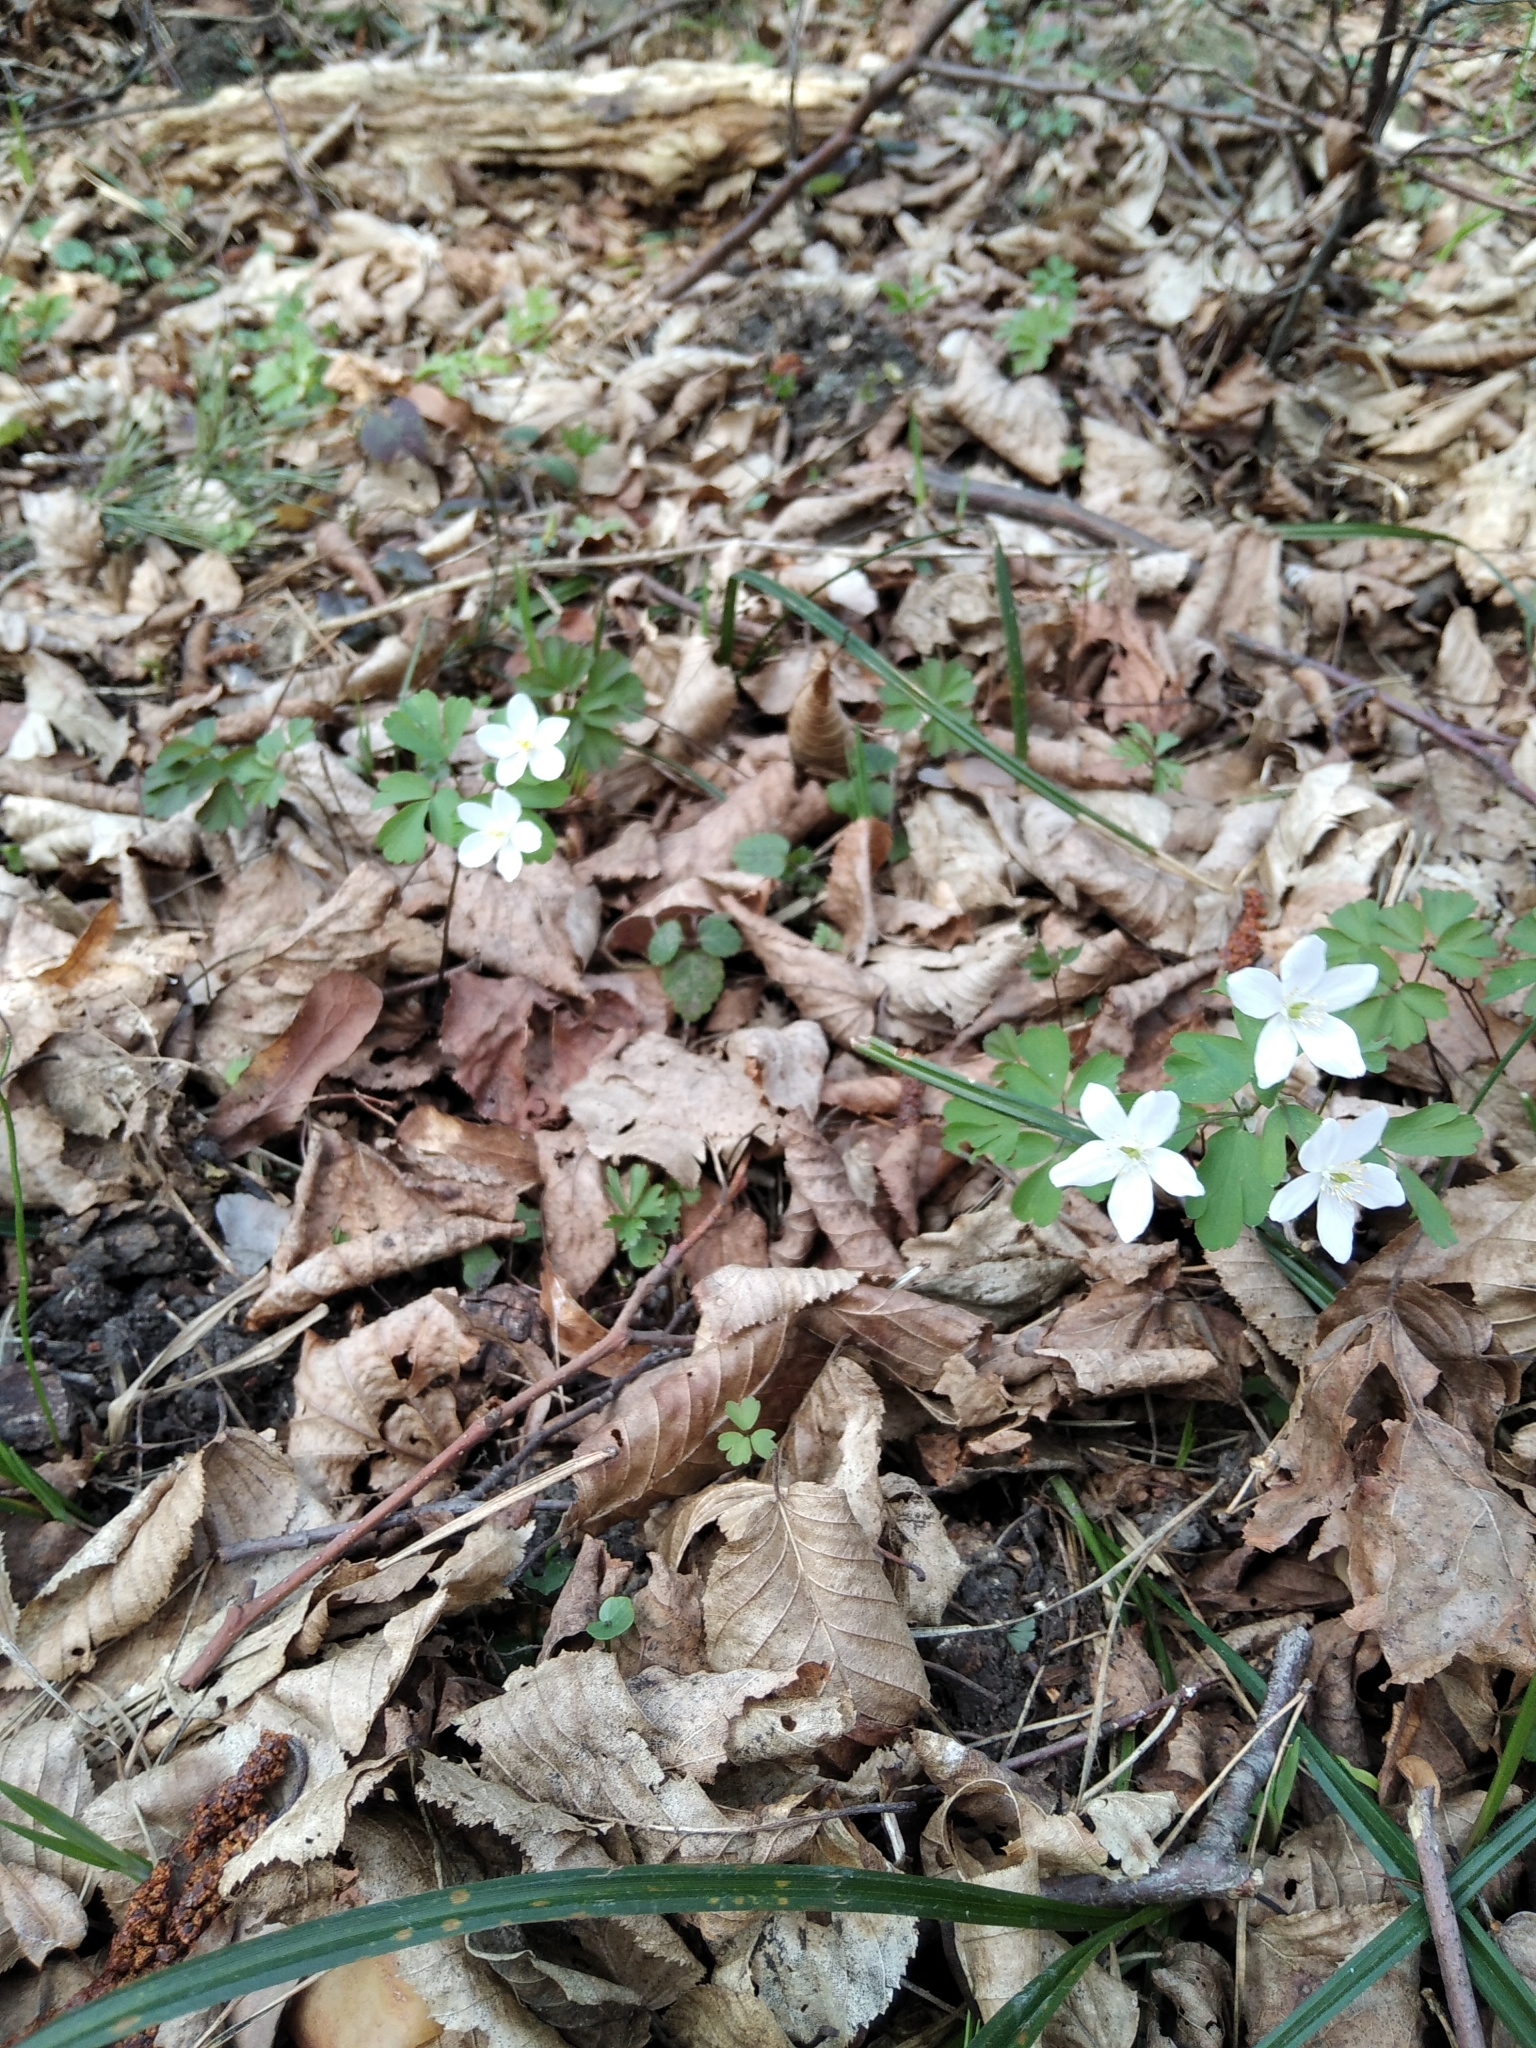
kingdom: Plantae
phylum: Tracheophyta
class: Magnoliopsida
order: Ranunculales
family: Ranunculaceae
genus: Isopyrum
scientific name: Isopyrum thalictroides
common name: Isopyrum
